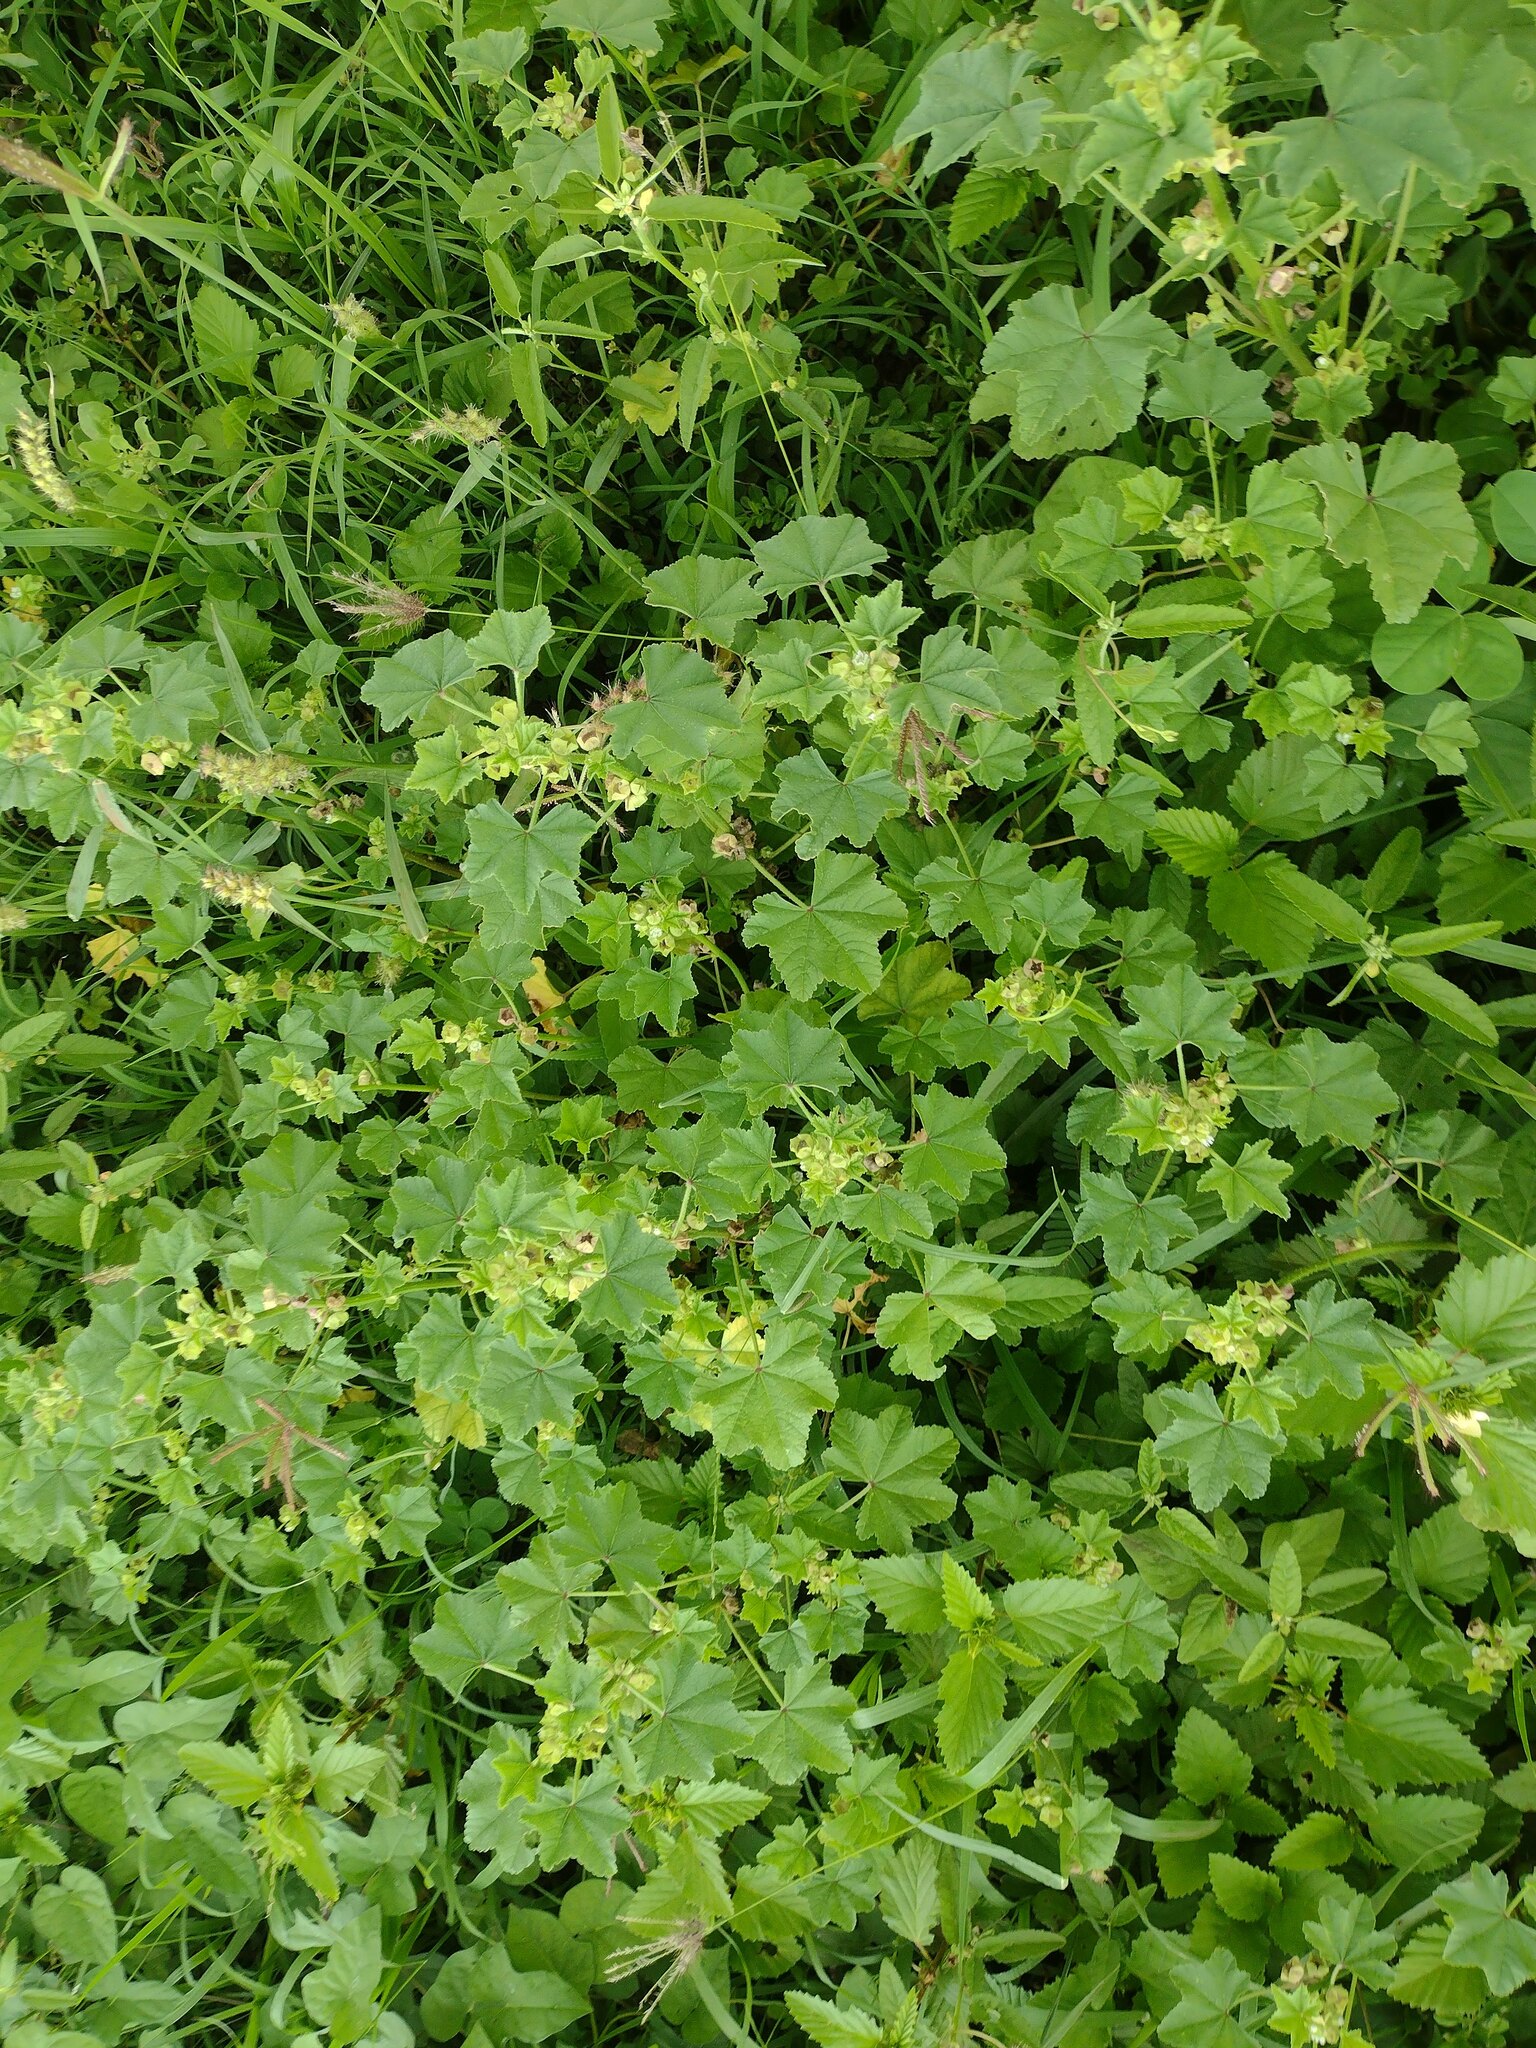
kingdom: Plantae
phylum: Tracheophyta
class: Magnoliopsida
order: Malvales
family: Malvaceae
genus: Malva
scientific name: Malva parviflora
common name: Least mallow
